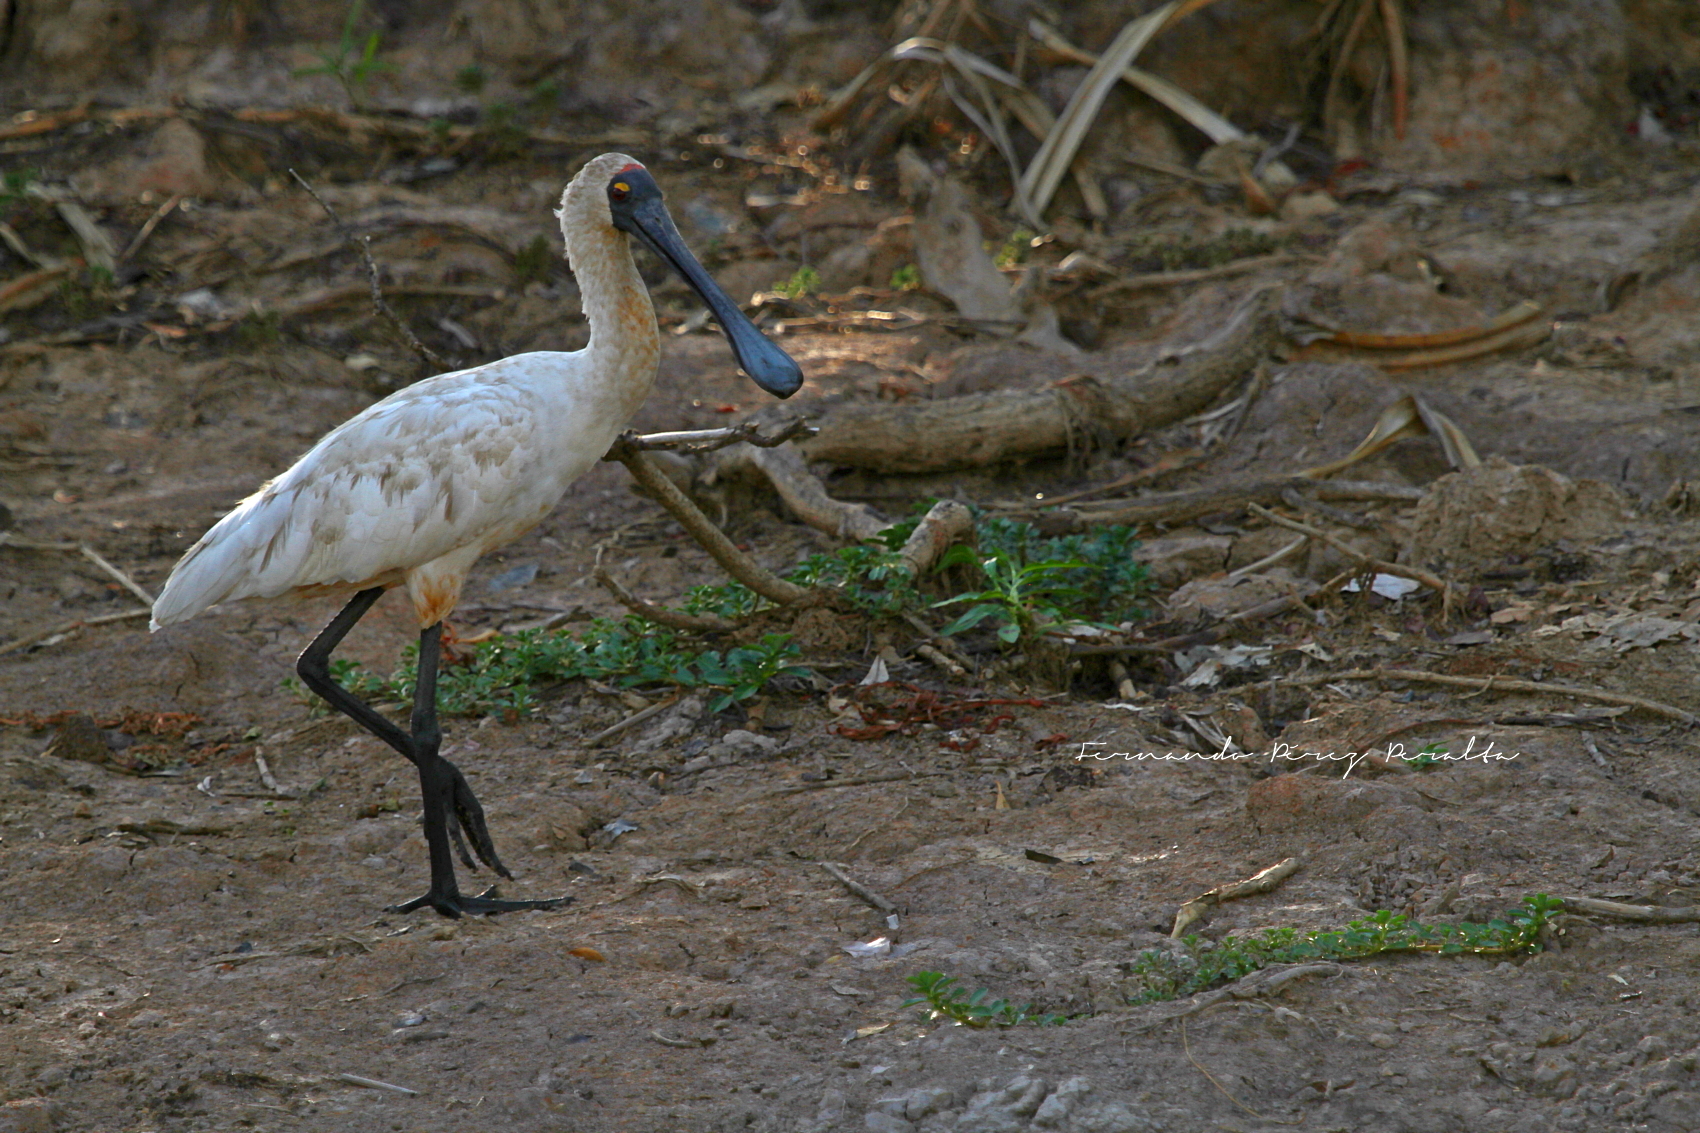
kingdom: Animalia
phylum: Chordata
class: Aves
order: Pelecaniformes
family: Threskiornithidae
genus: Platalea
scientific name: Platalea regia
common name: Royal spoonbill
